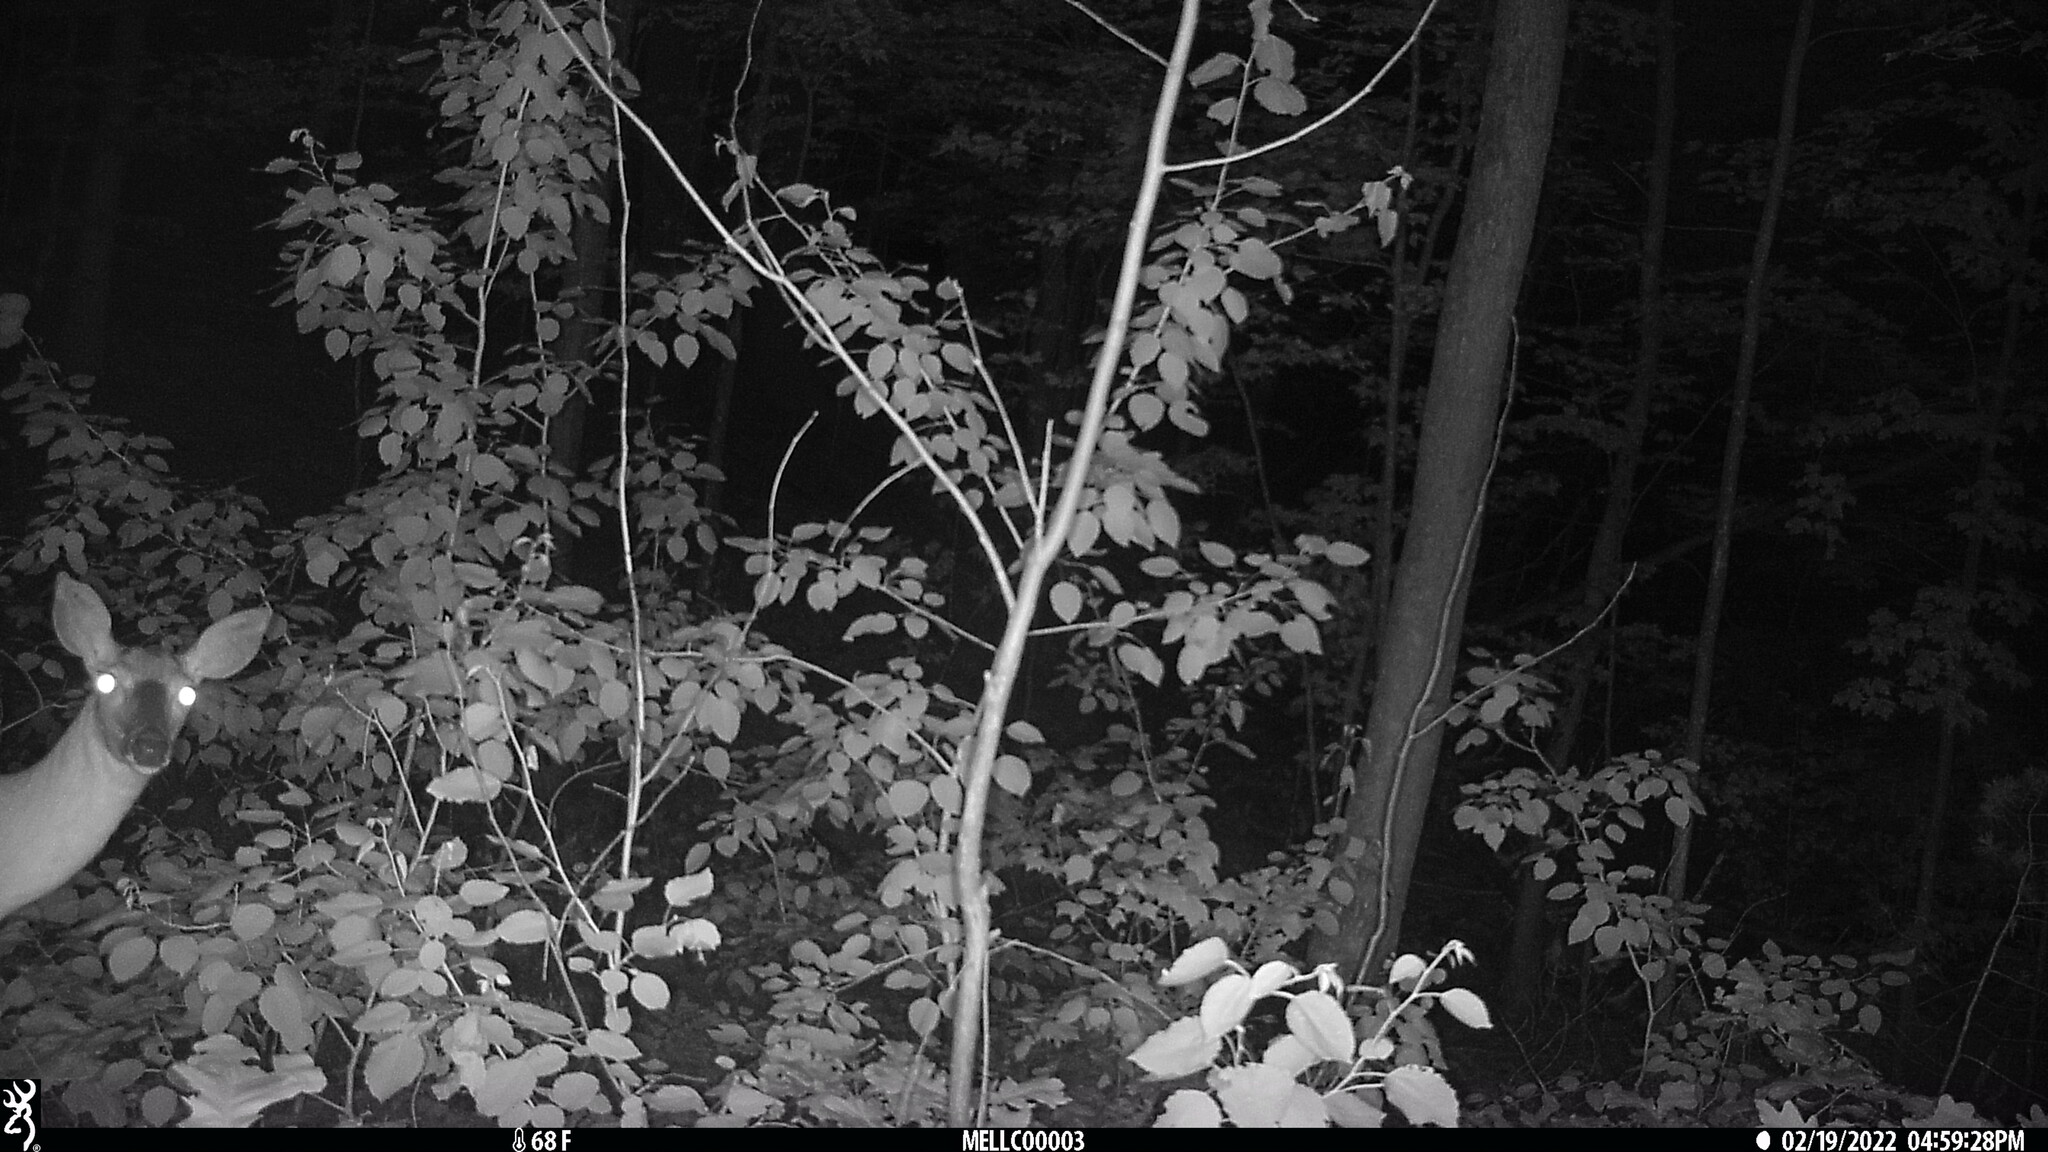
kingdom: Animalia
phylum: Chordata
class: Mammalia
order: Artiodactyla
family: Cervidae
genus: Odocoileus
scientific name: Odocoileus virginianus
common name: White-tailed deer
